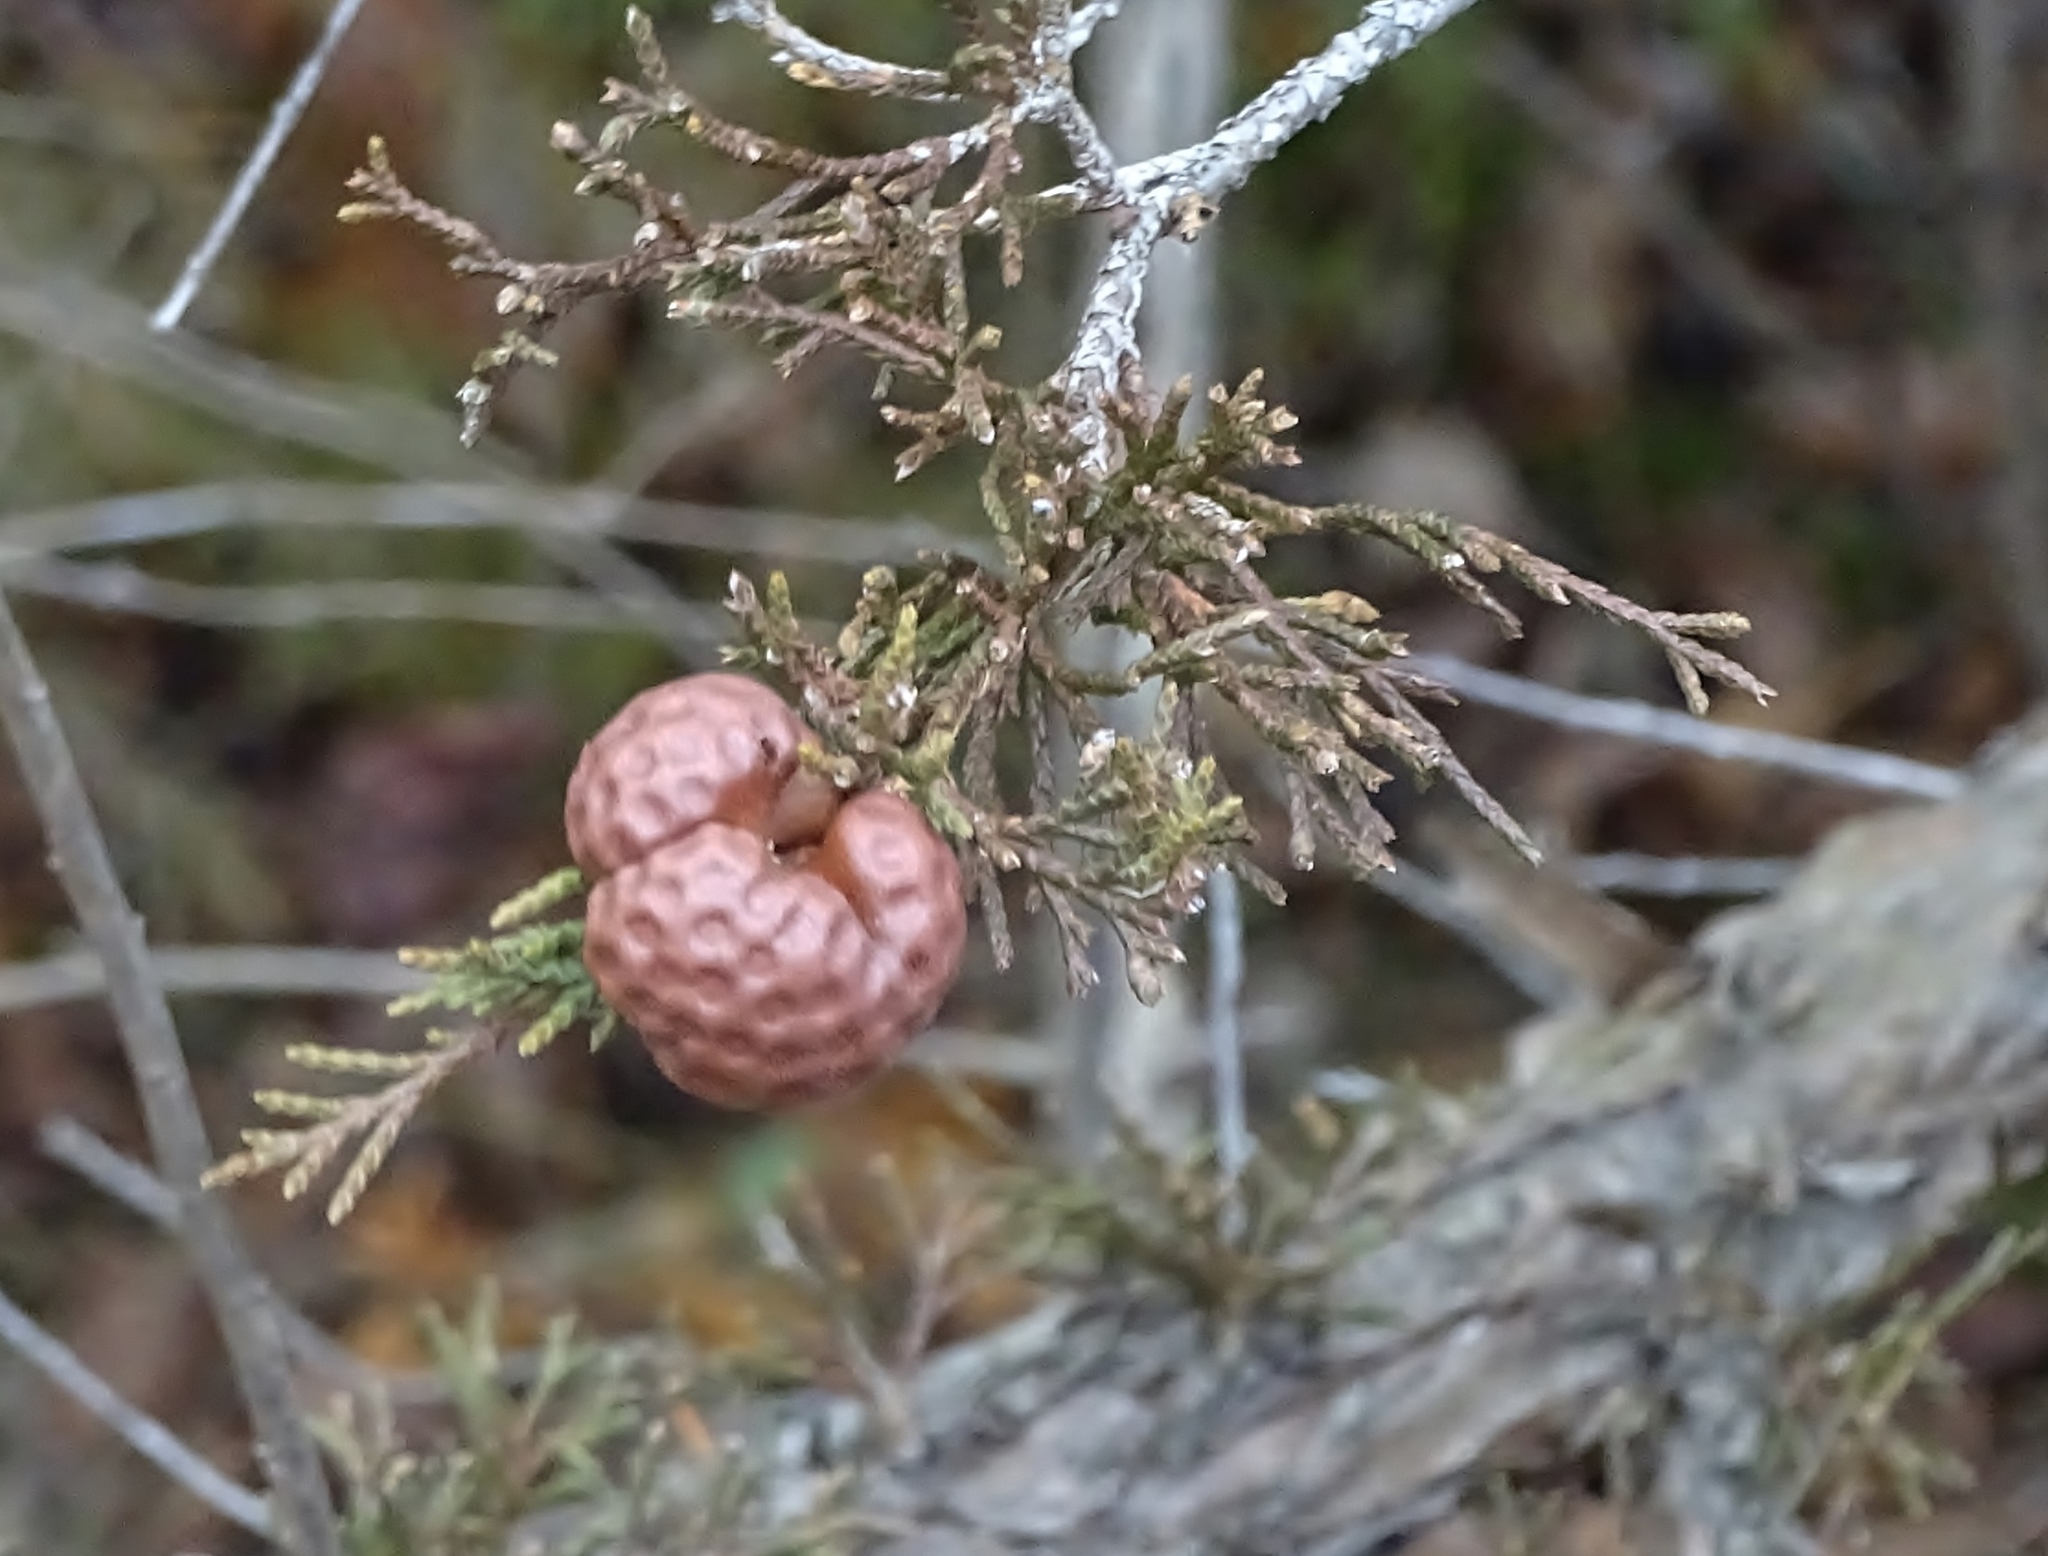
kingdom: Fungi
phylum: Basidiomycota
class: Pucciniomycetes
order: Pucciniales
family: Gymnosporangiaceae
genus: Gymnosporangium
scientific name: Gymnosporangium juniperi-virginianae
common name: Juniper-apple rust
